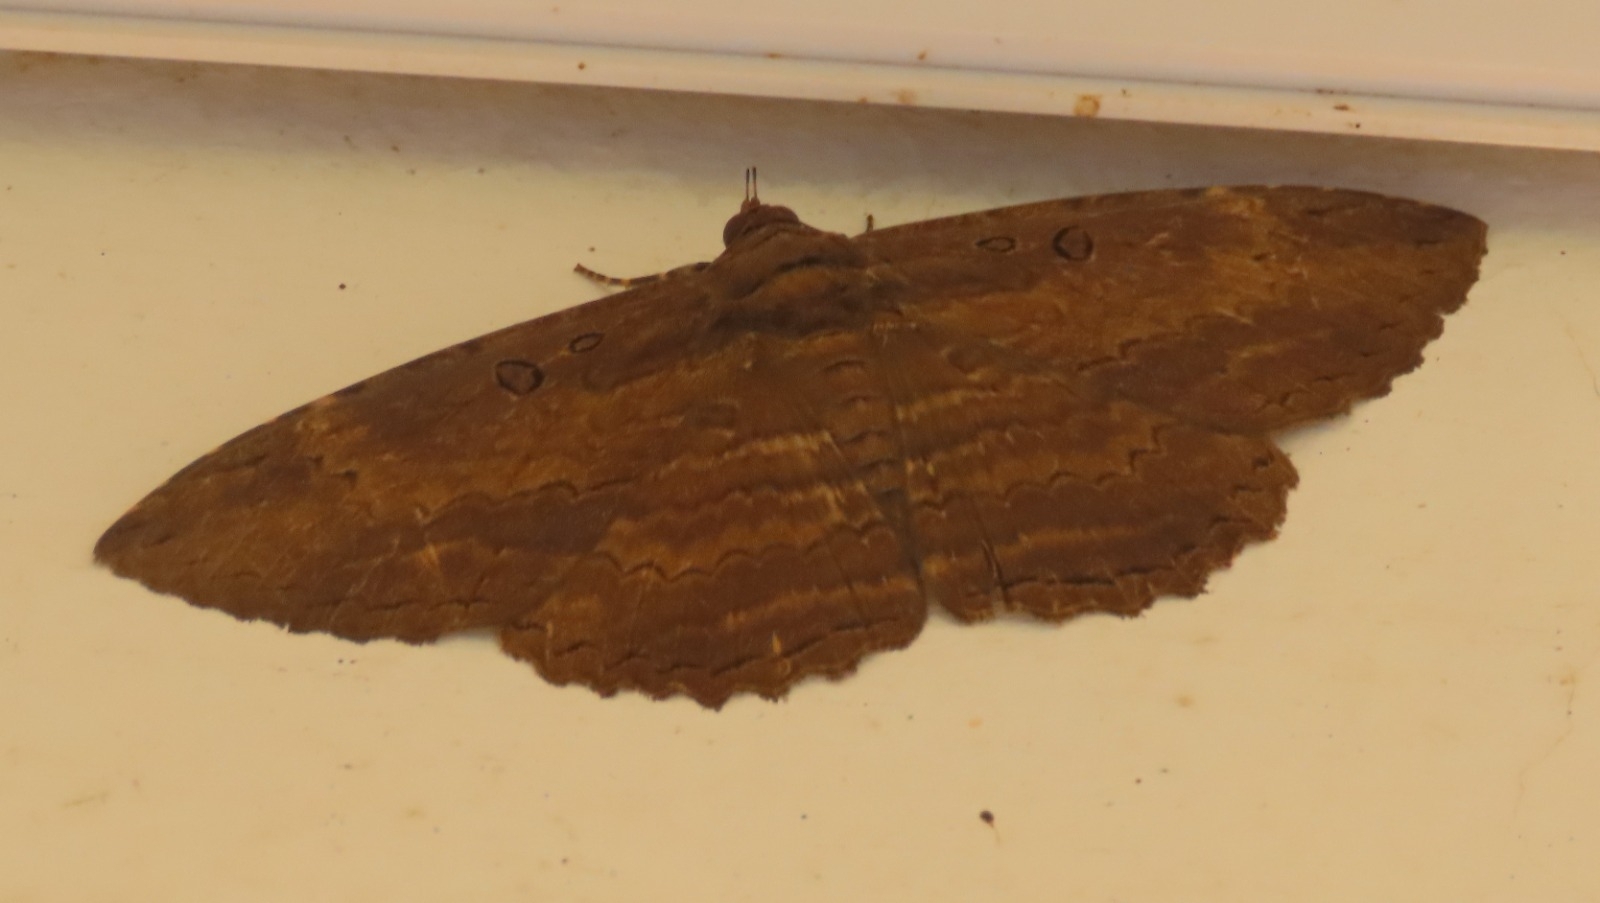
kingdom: Animalia
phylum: Arthropoda
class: Insecta
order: Lepidoptera
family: Erebidae
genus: Feigeria
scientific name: Feigeria buteo
